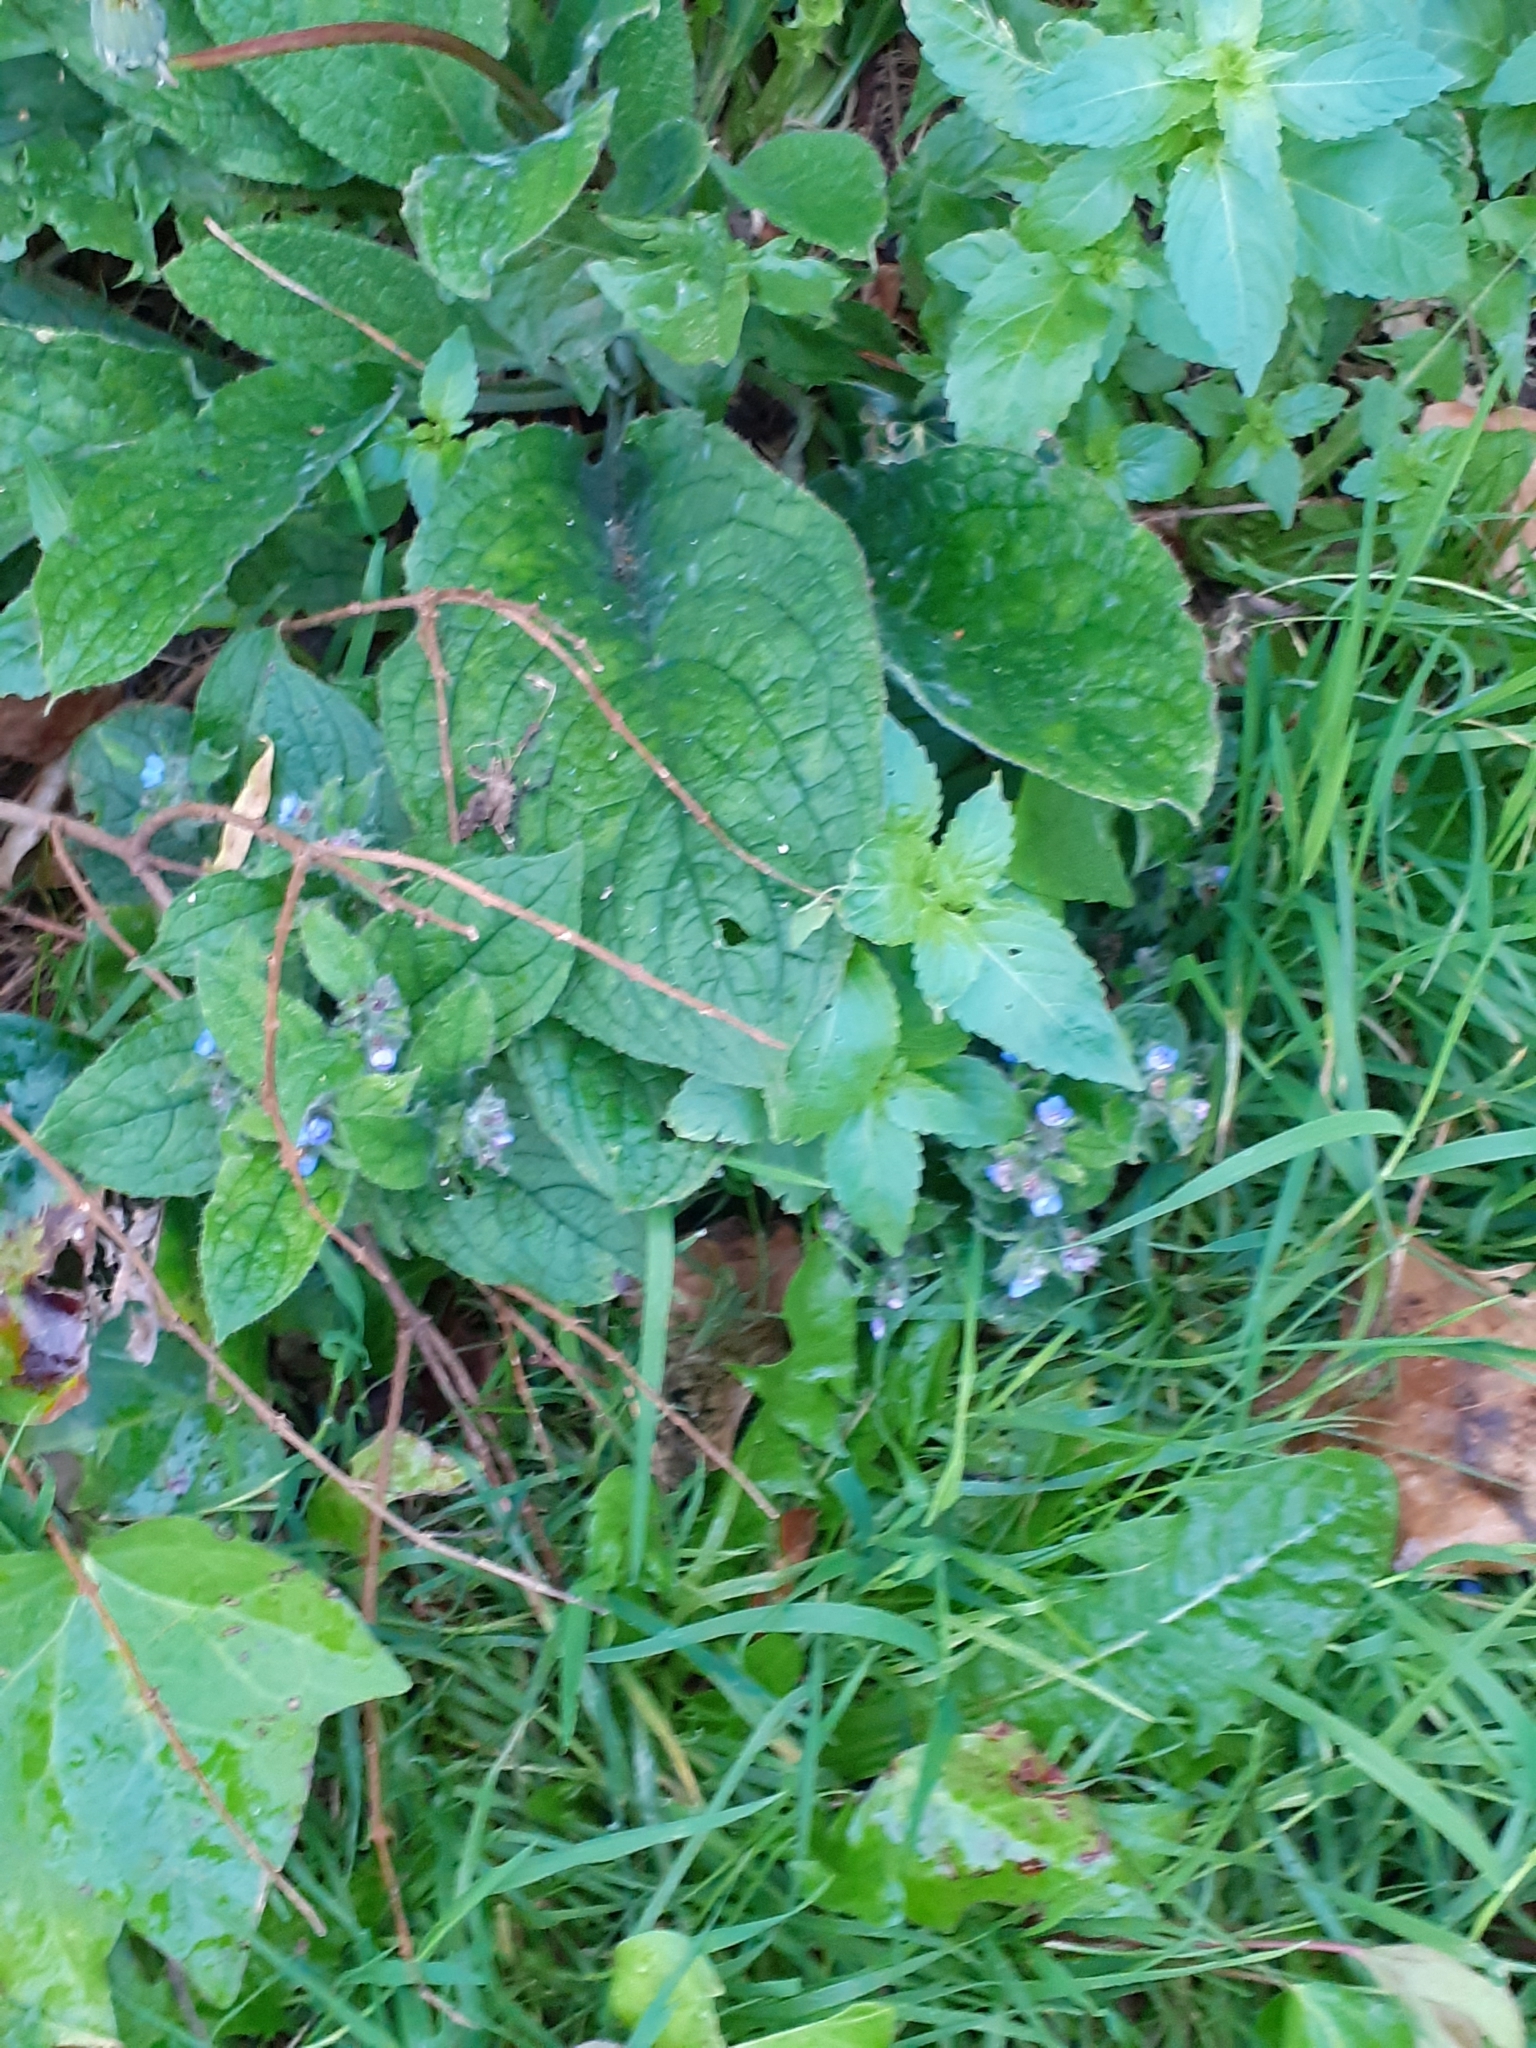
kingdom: Plantae
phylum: Tracheophyta
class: Magnoliopsida
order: Boraginales
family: Boraginaceae
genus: Pentaglottis
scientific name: Pentaglottis sempervirens
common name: Green alkanet
